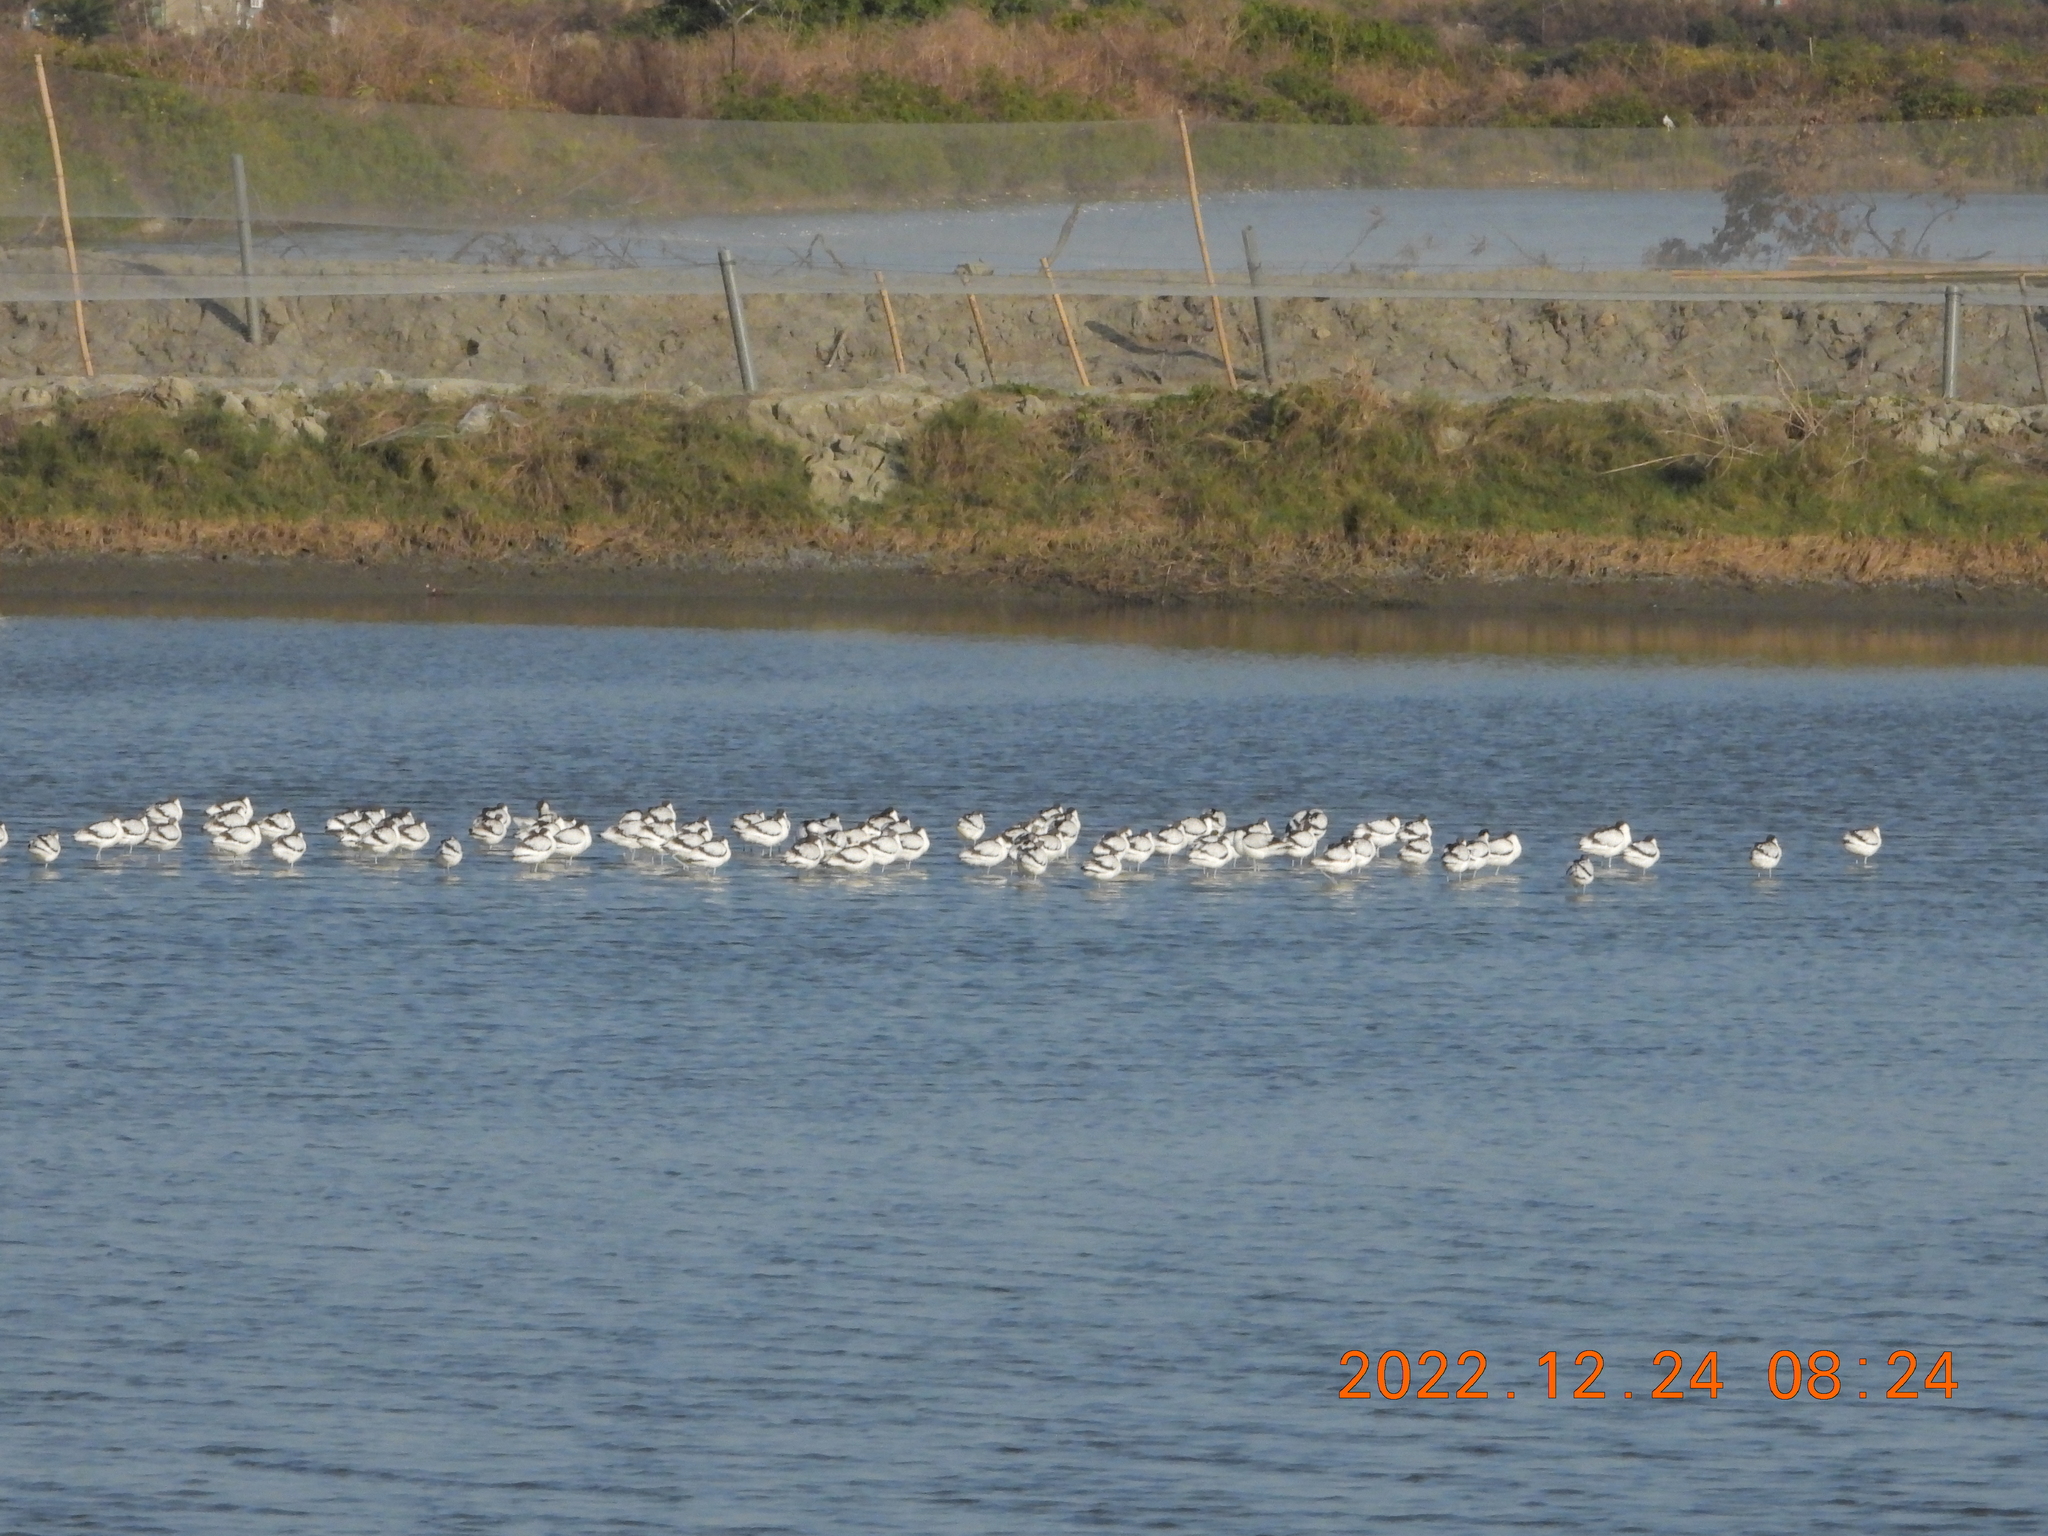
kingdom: Animalia
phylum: Chordata
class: Aves
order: Charadriiformes
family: Recurvirostridae
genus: Recurvirostra
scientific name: Recurvirostra avosetta
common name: Pied avocet
